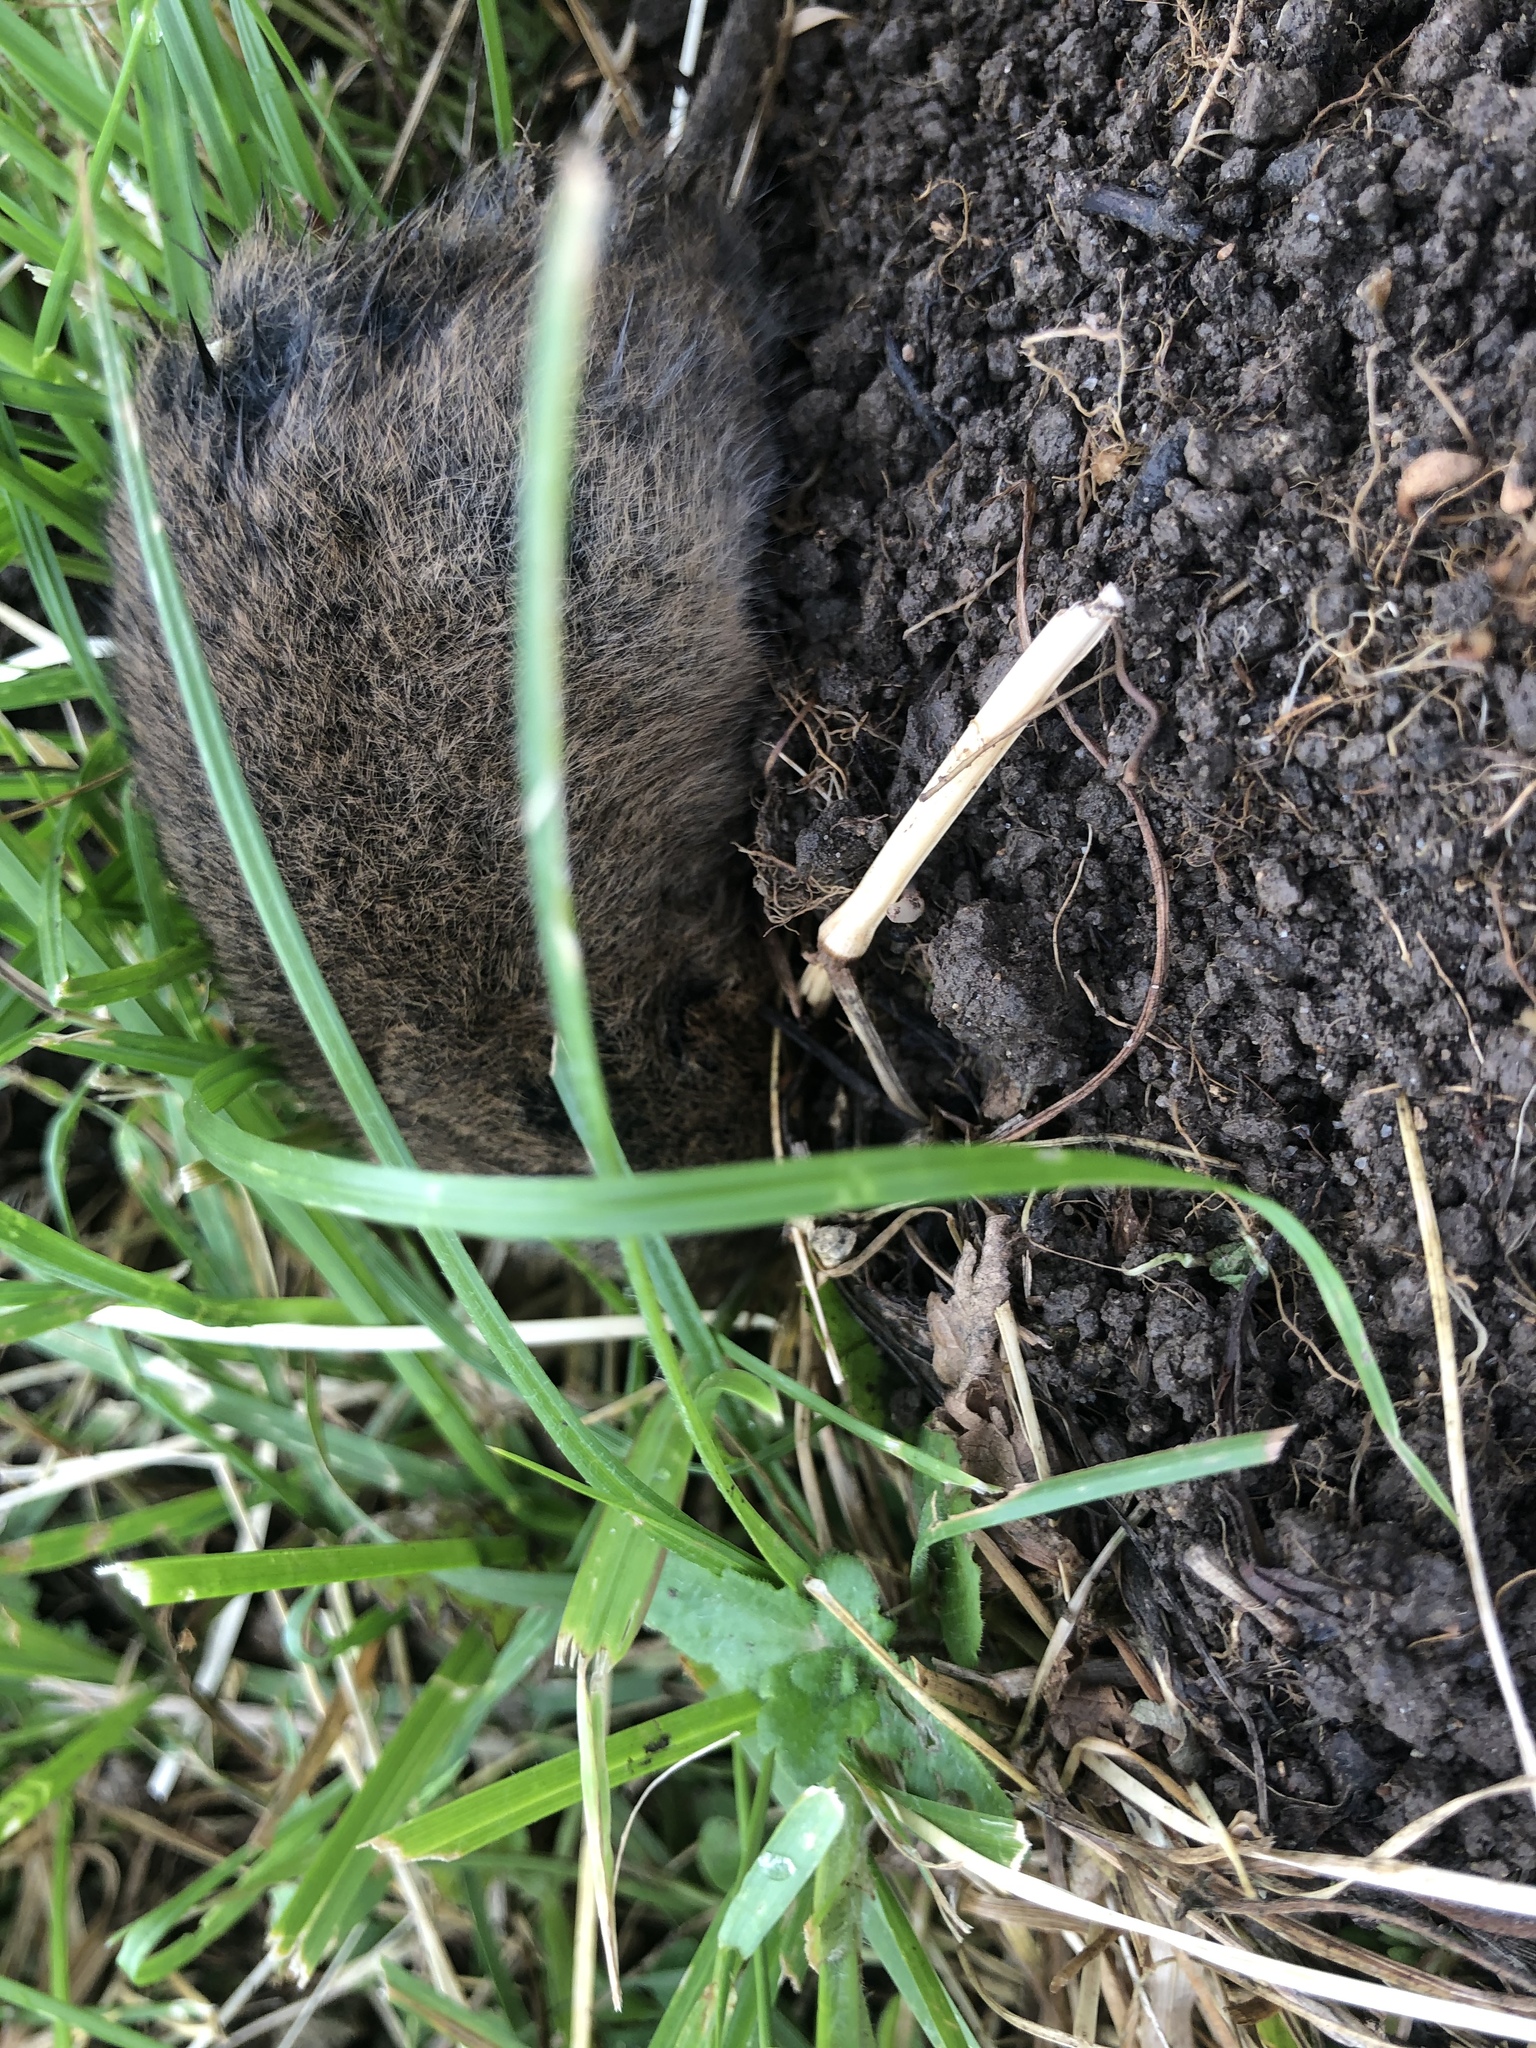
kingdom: Animalia
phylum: Chordata
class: Mammalia
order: Rodentia
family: Cricetidae
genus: Arvicola
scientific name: Arvicola amphibius
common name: European water vole
